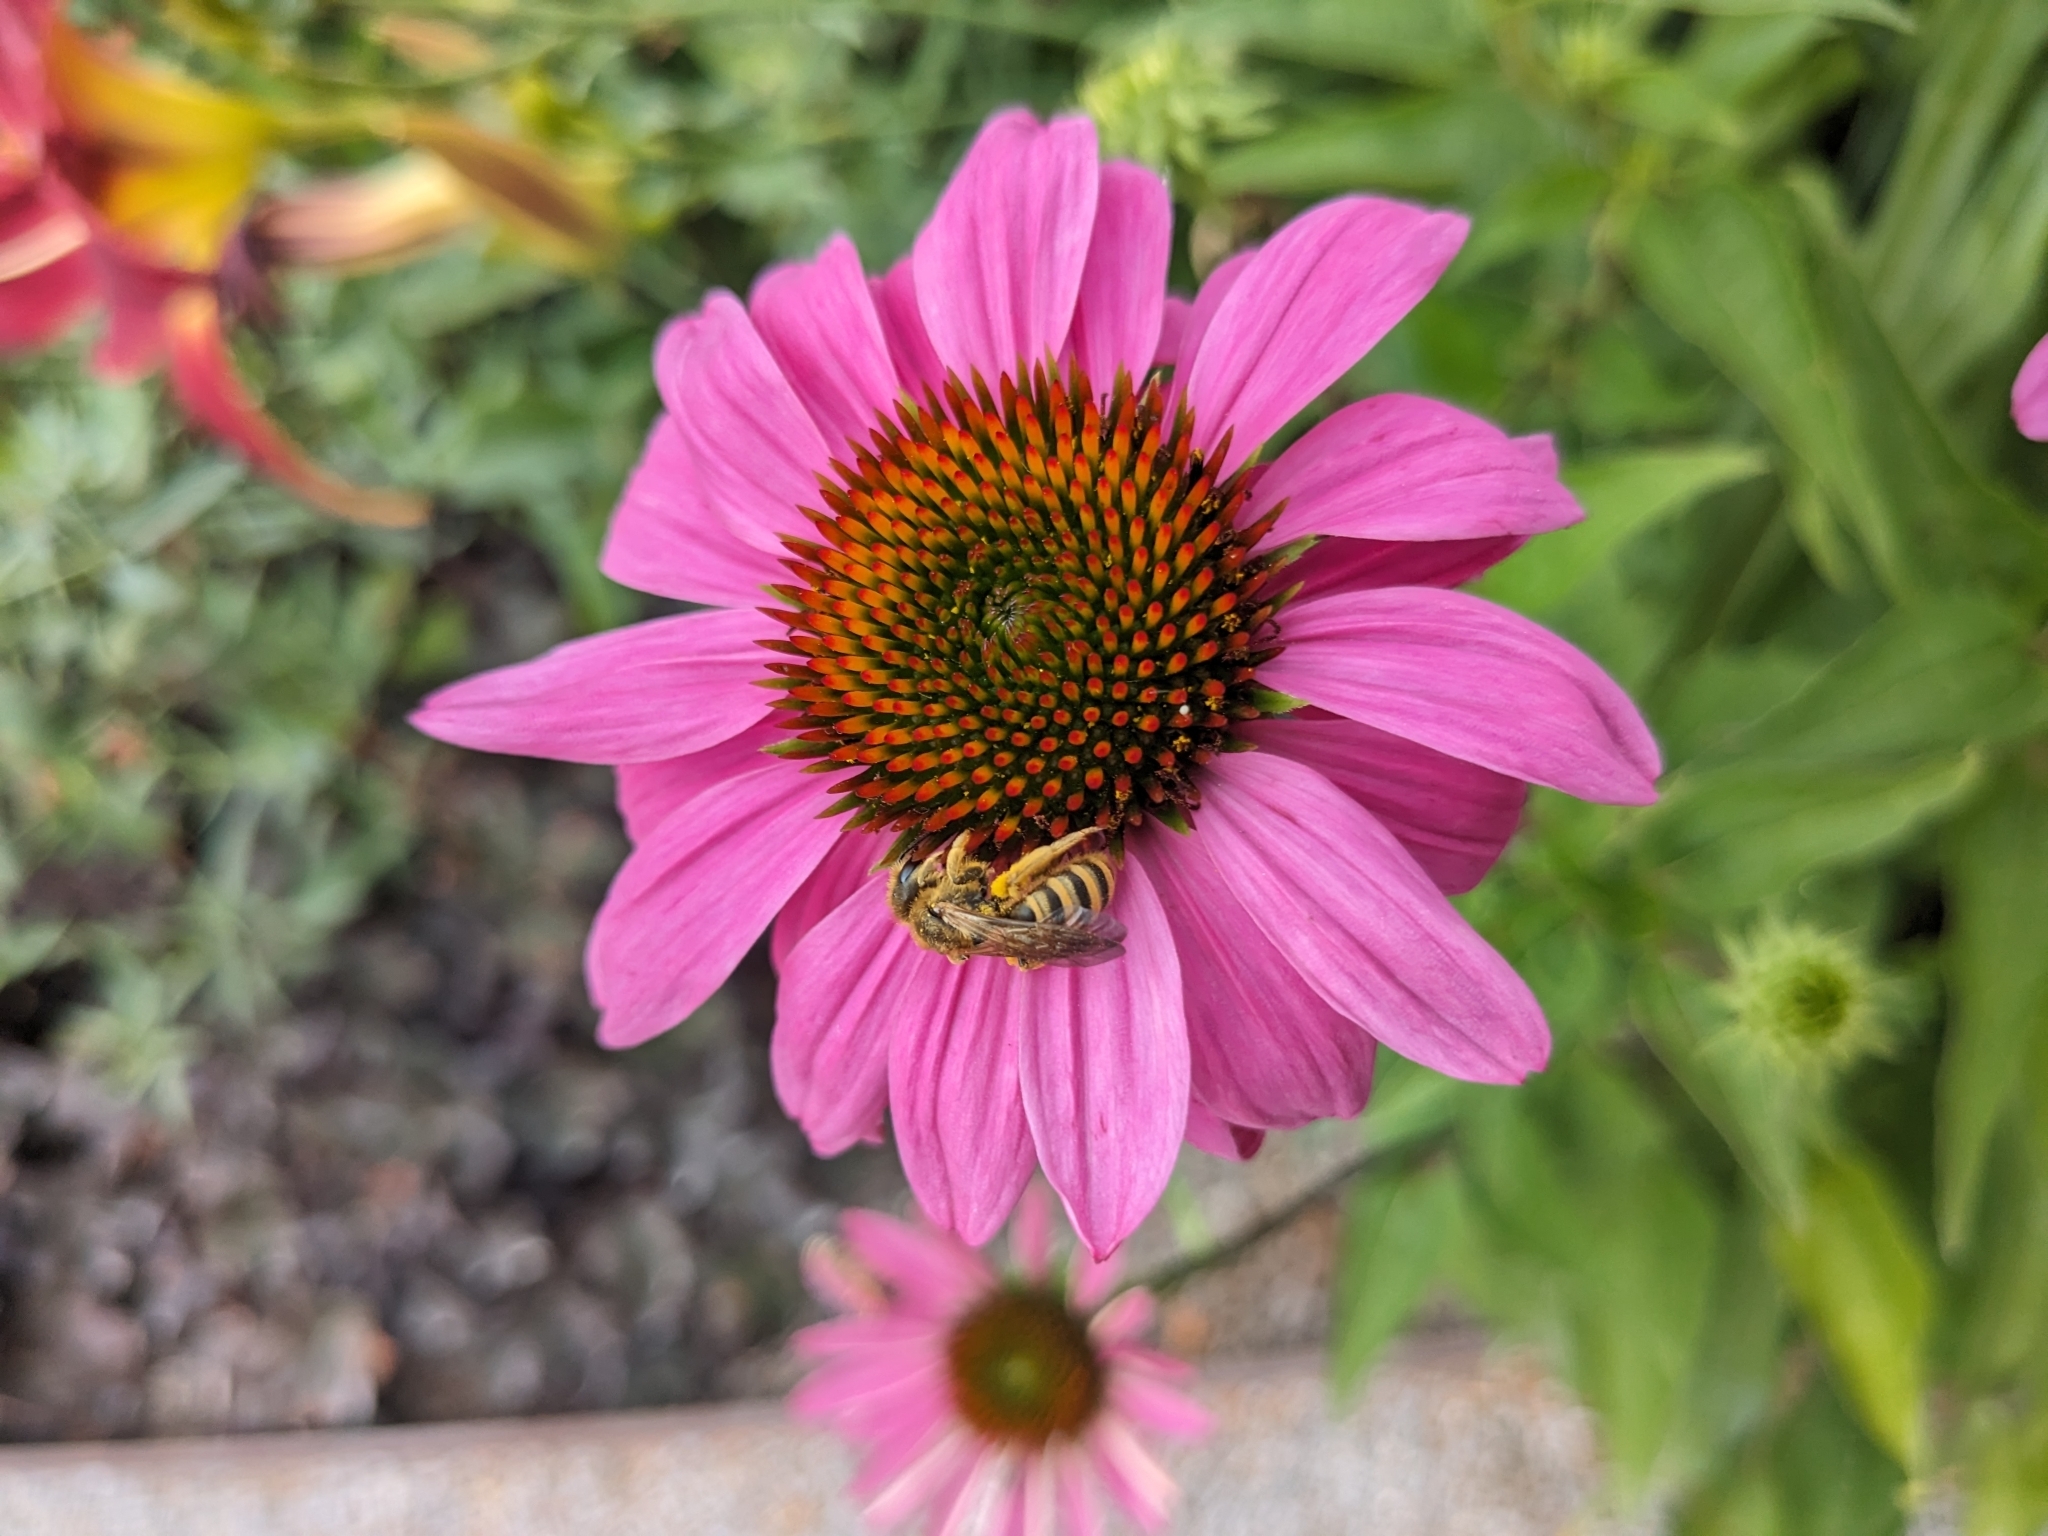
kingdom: Animalia
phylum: Arthropoda
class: Insecta
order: Hymenoptera
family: Halictidae
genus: Halictus
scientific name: Halictus scabiosae
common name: Great banded furrow bee
